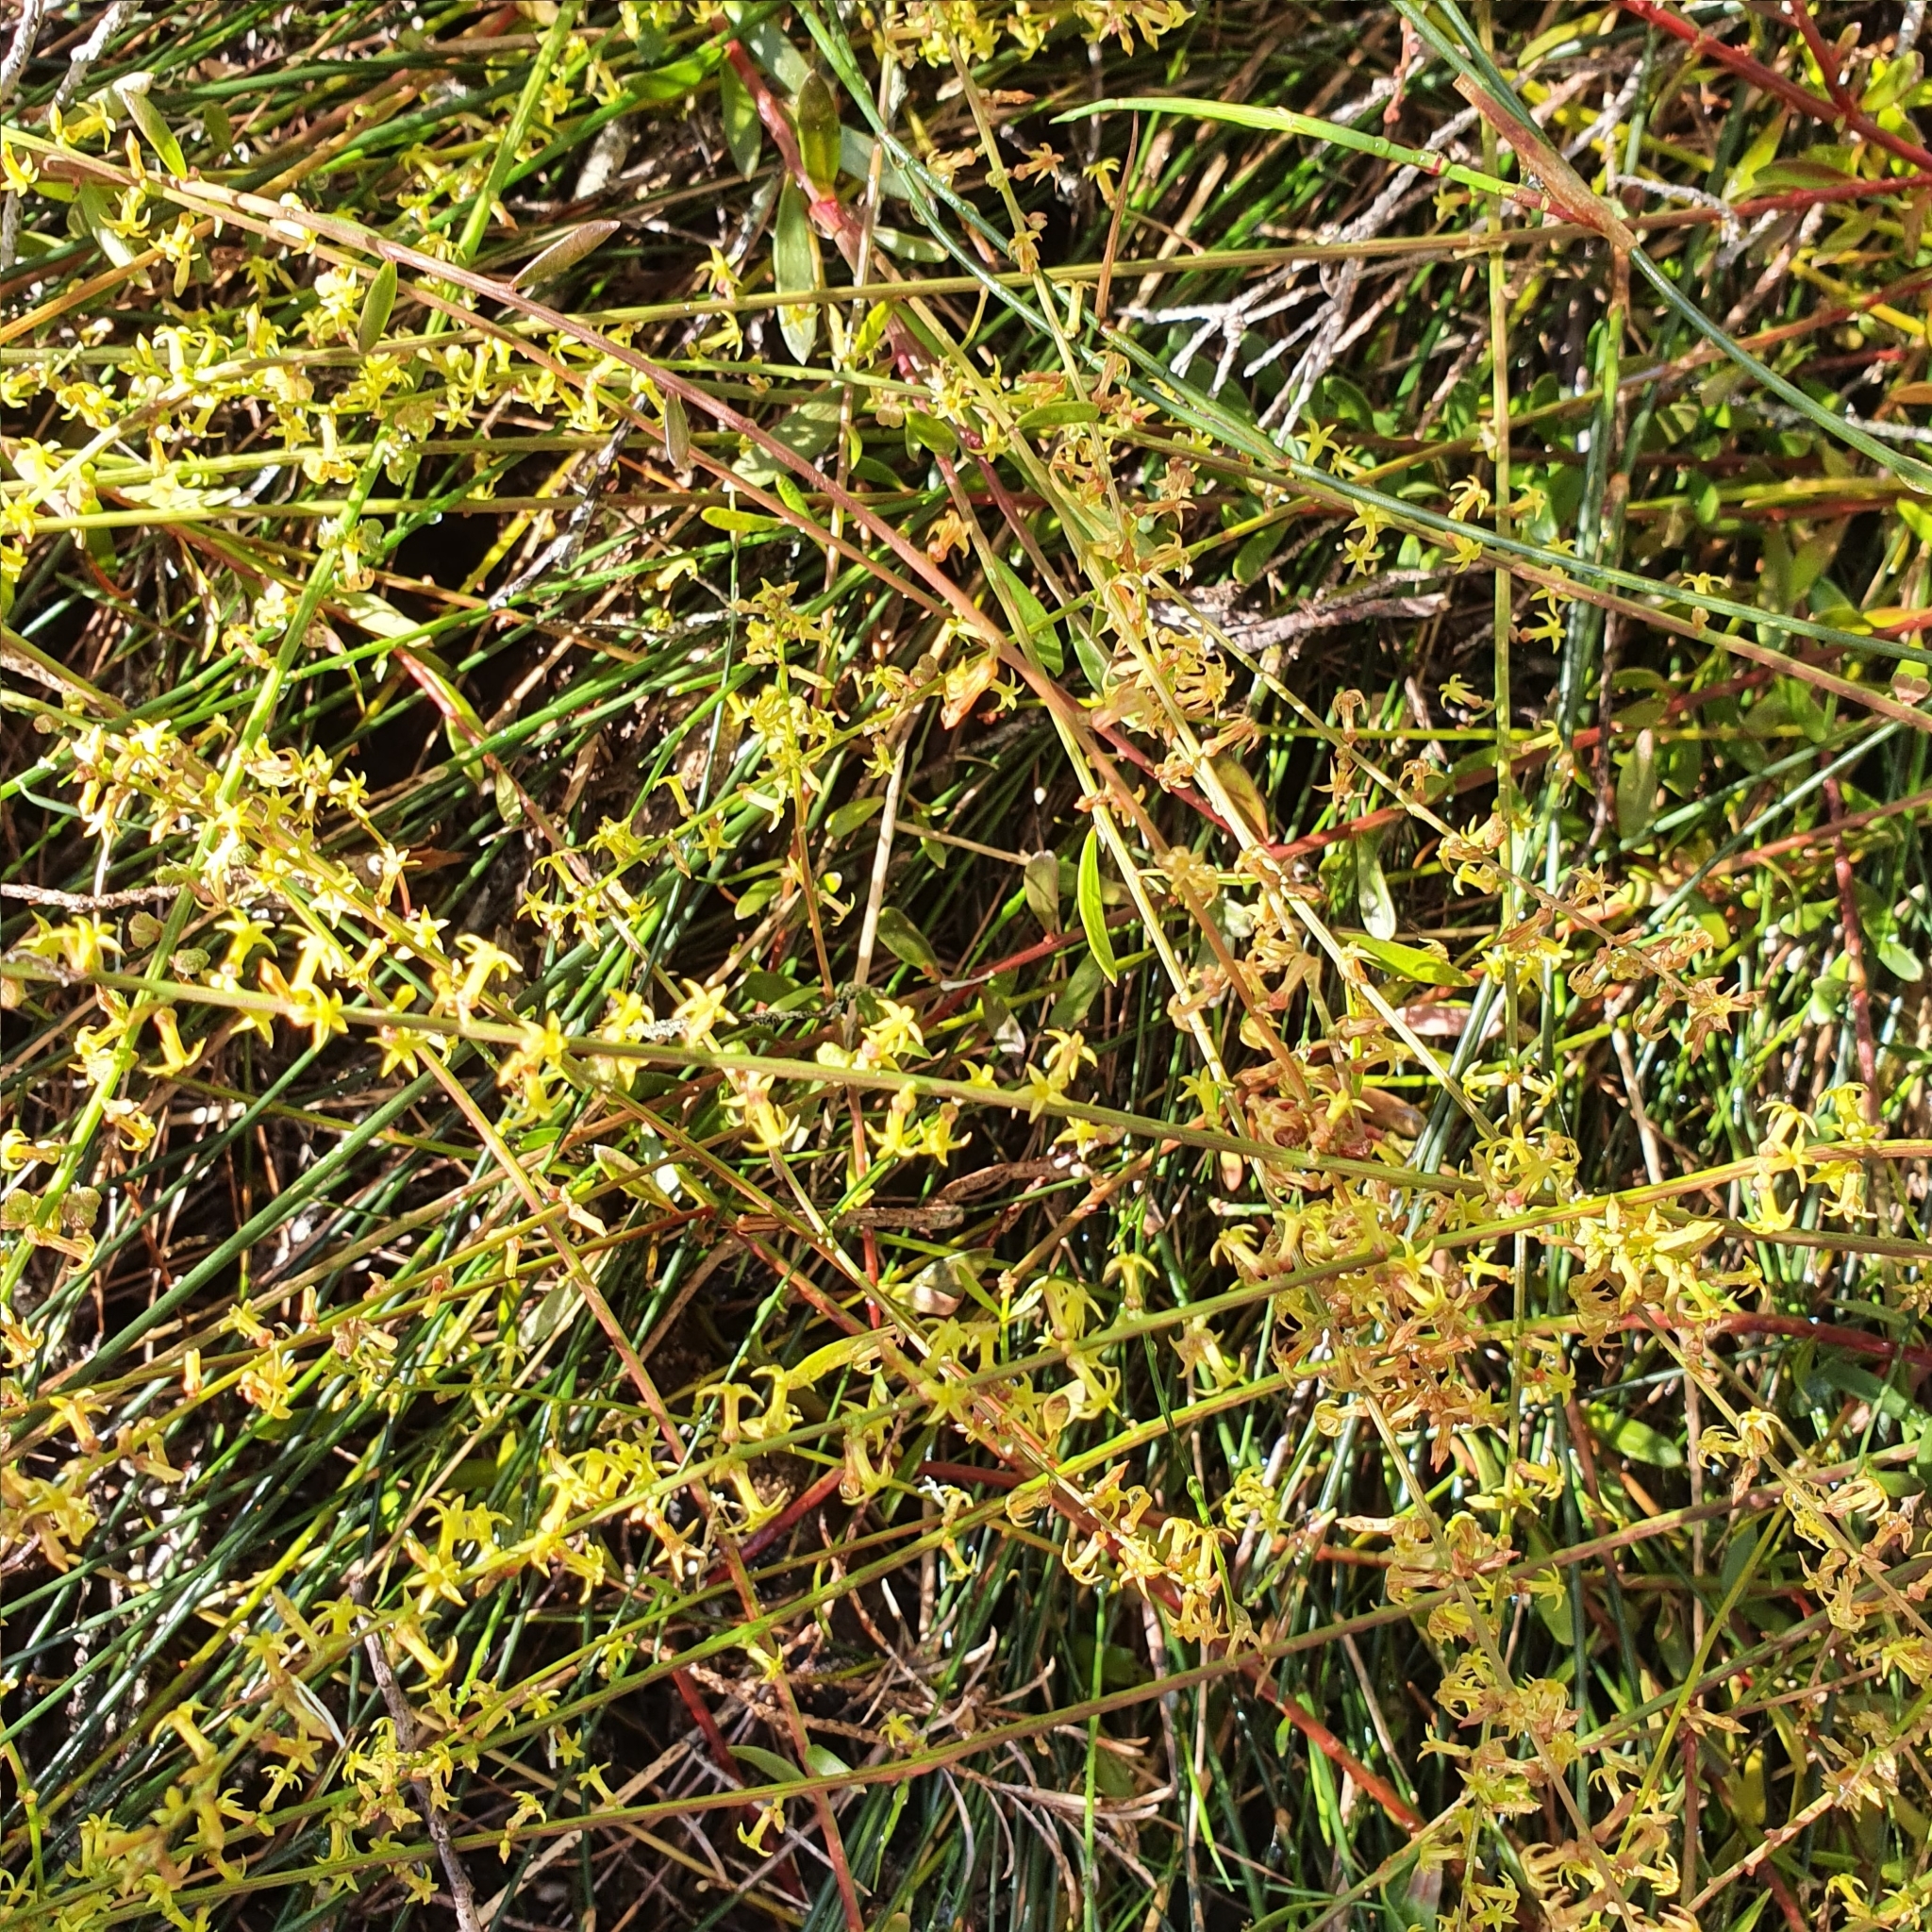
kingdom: Plantae
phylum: Tracheophyta
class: Magnoliopsida
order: Celastrales
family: Celastraceae
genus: Stackhousia
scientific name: Stackhousia viminea
